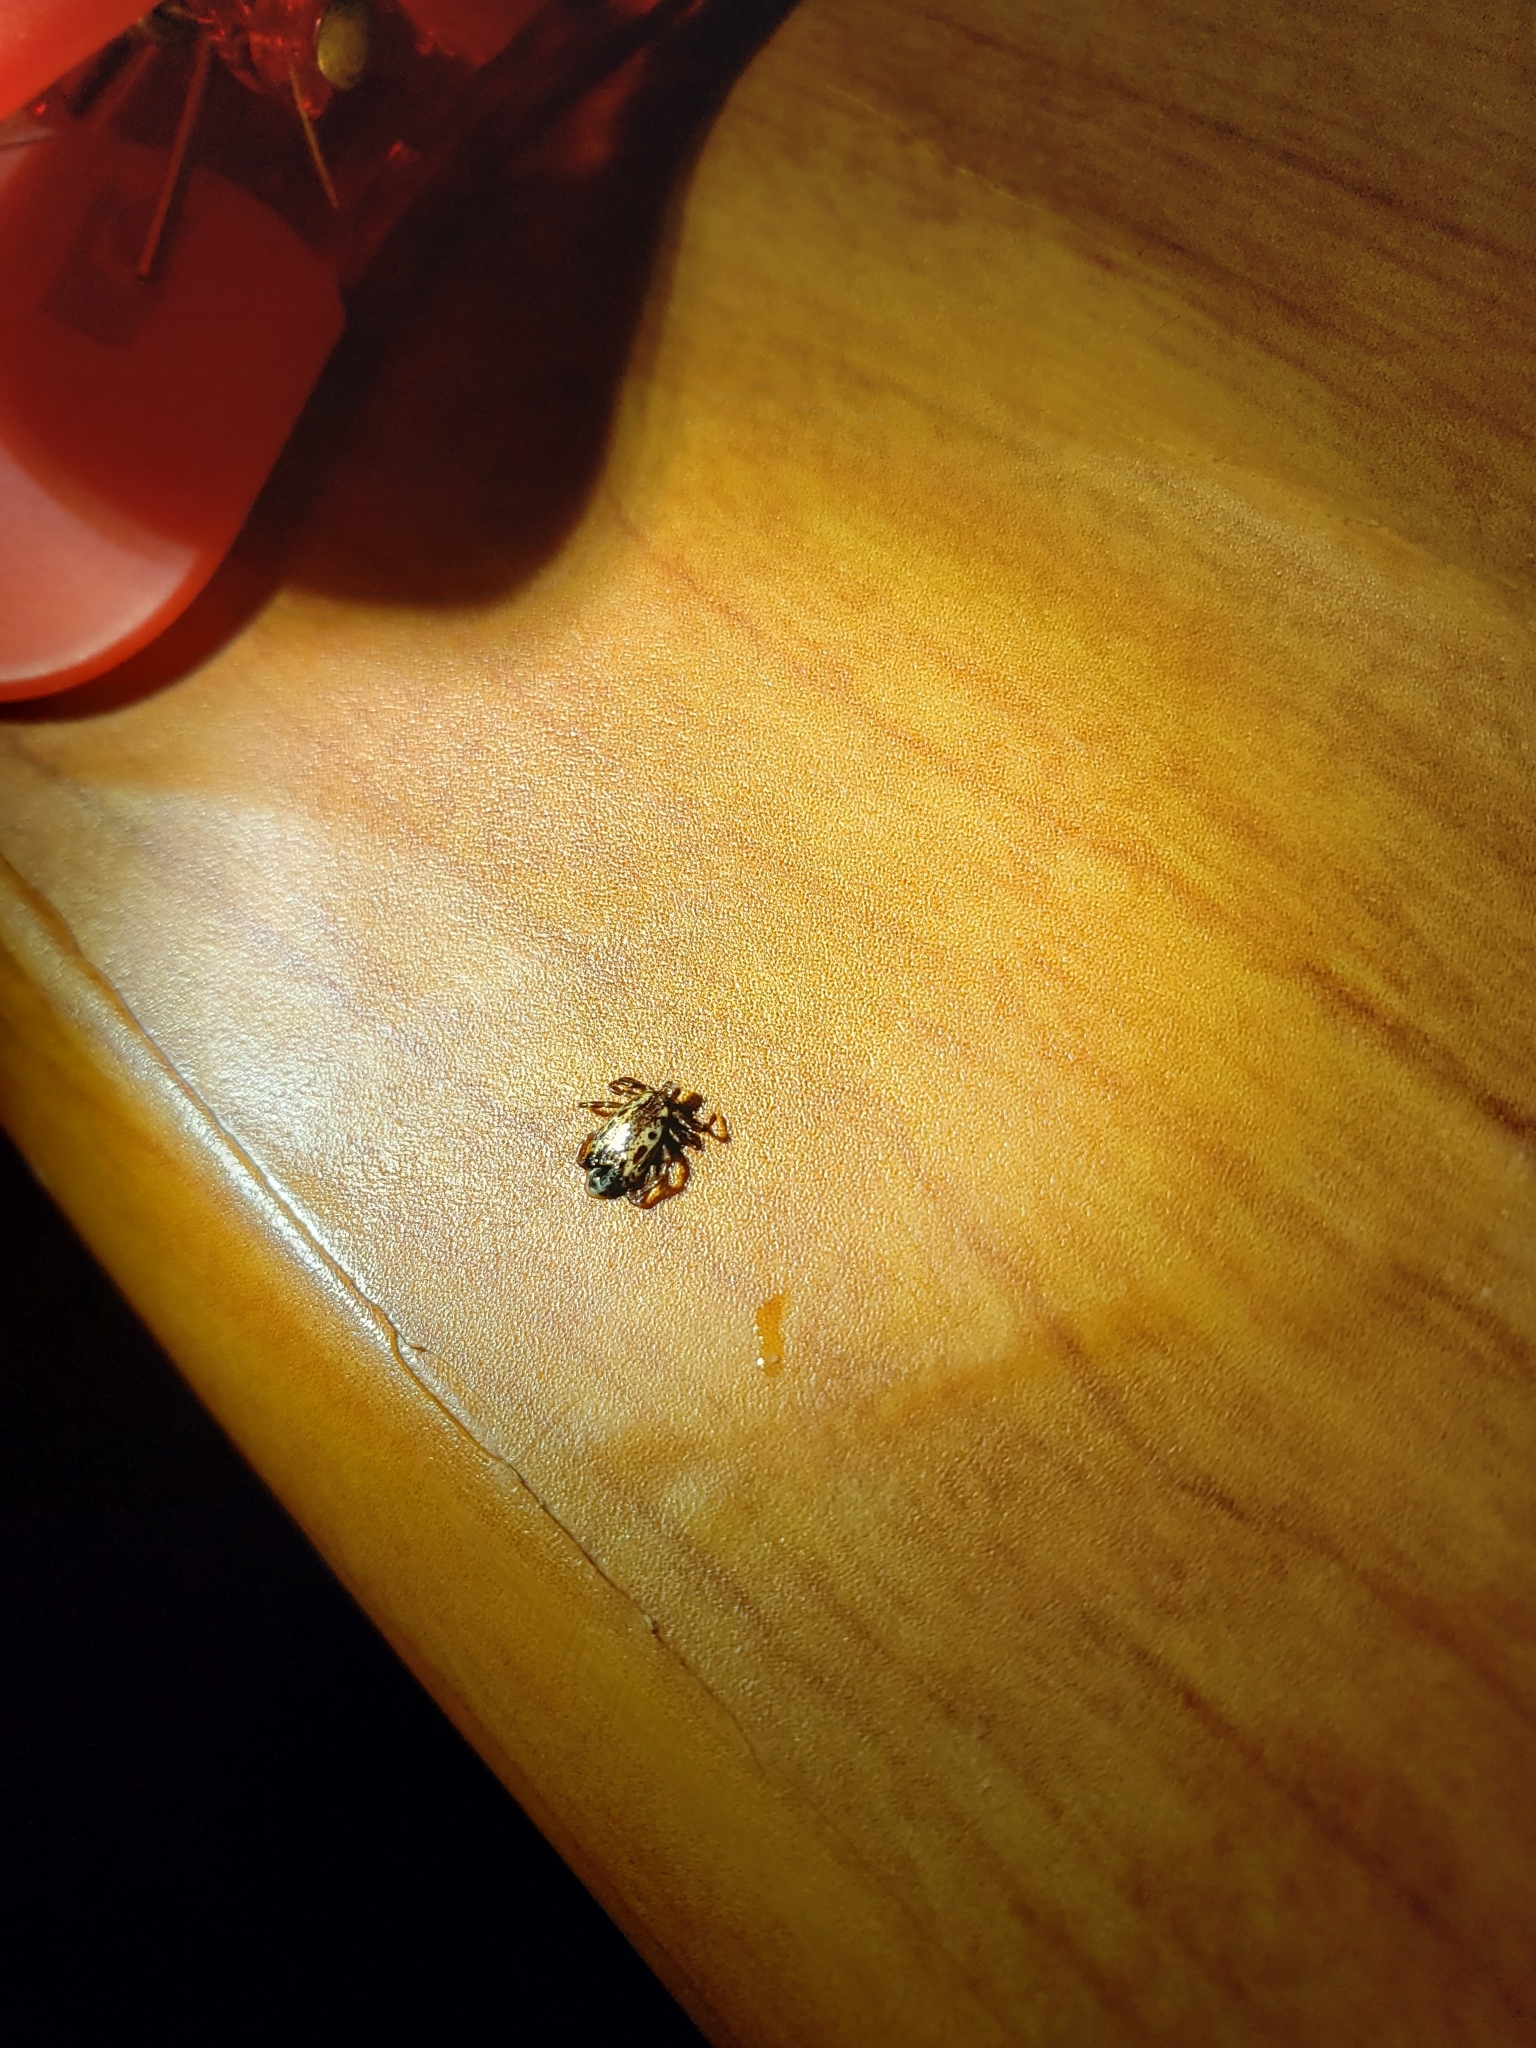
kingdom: Animalia
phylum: Arthropoda
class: Arachnida
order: Ixodida
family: Ixodidae
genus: Dermacentor
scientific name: Dermacentor variabilis
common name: American dog tick
